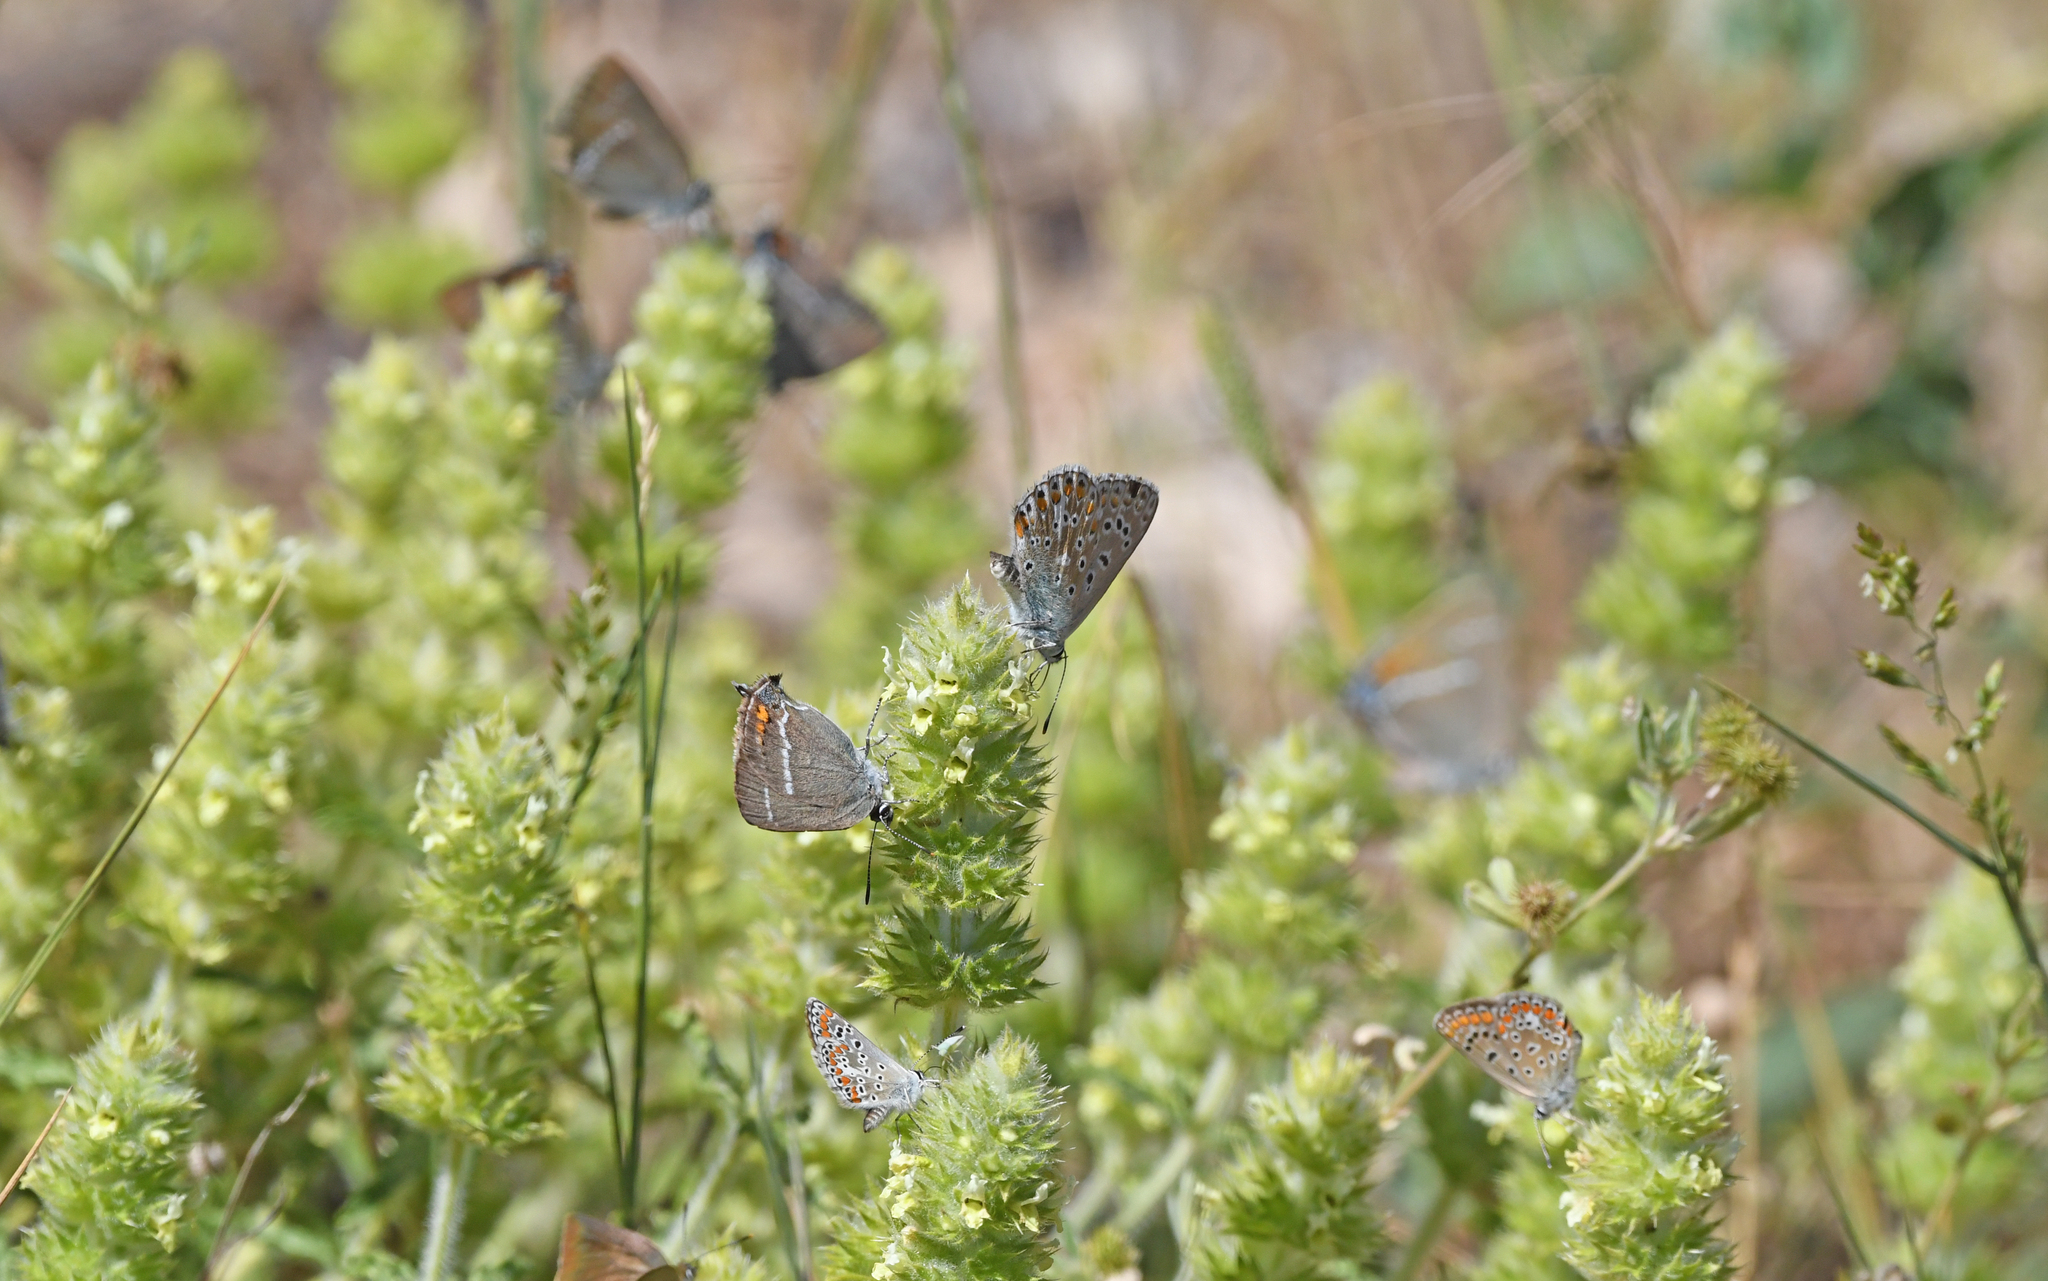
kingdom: Animalia
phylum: Arthropoda
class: Insecta
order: Lepidoptera
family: Lycaenidae
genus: Tuttiola
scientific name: Tuttiola spini
